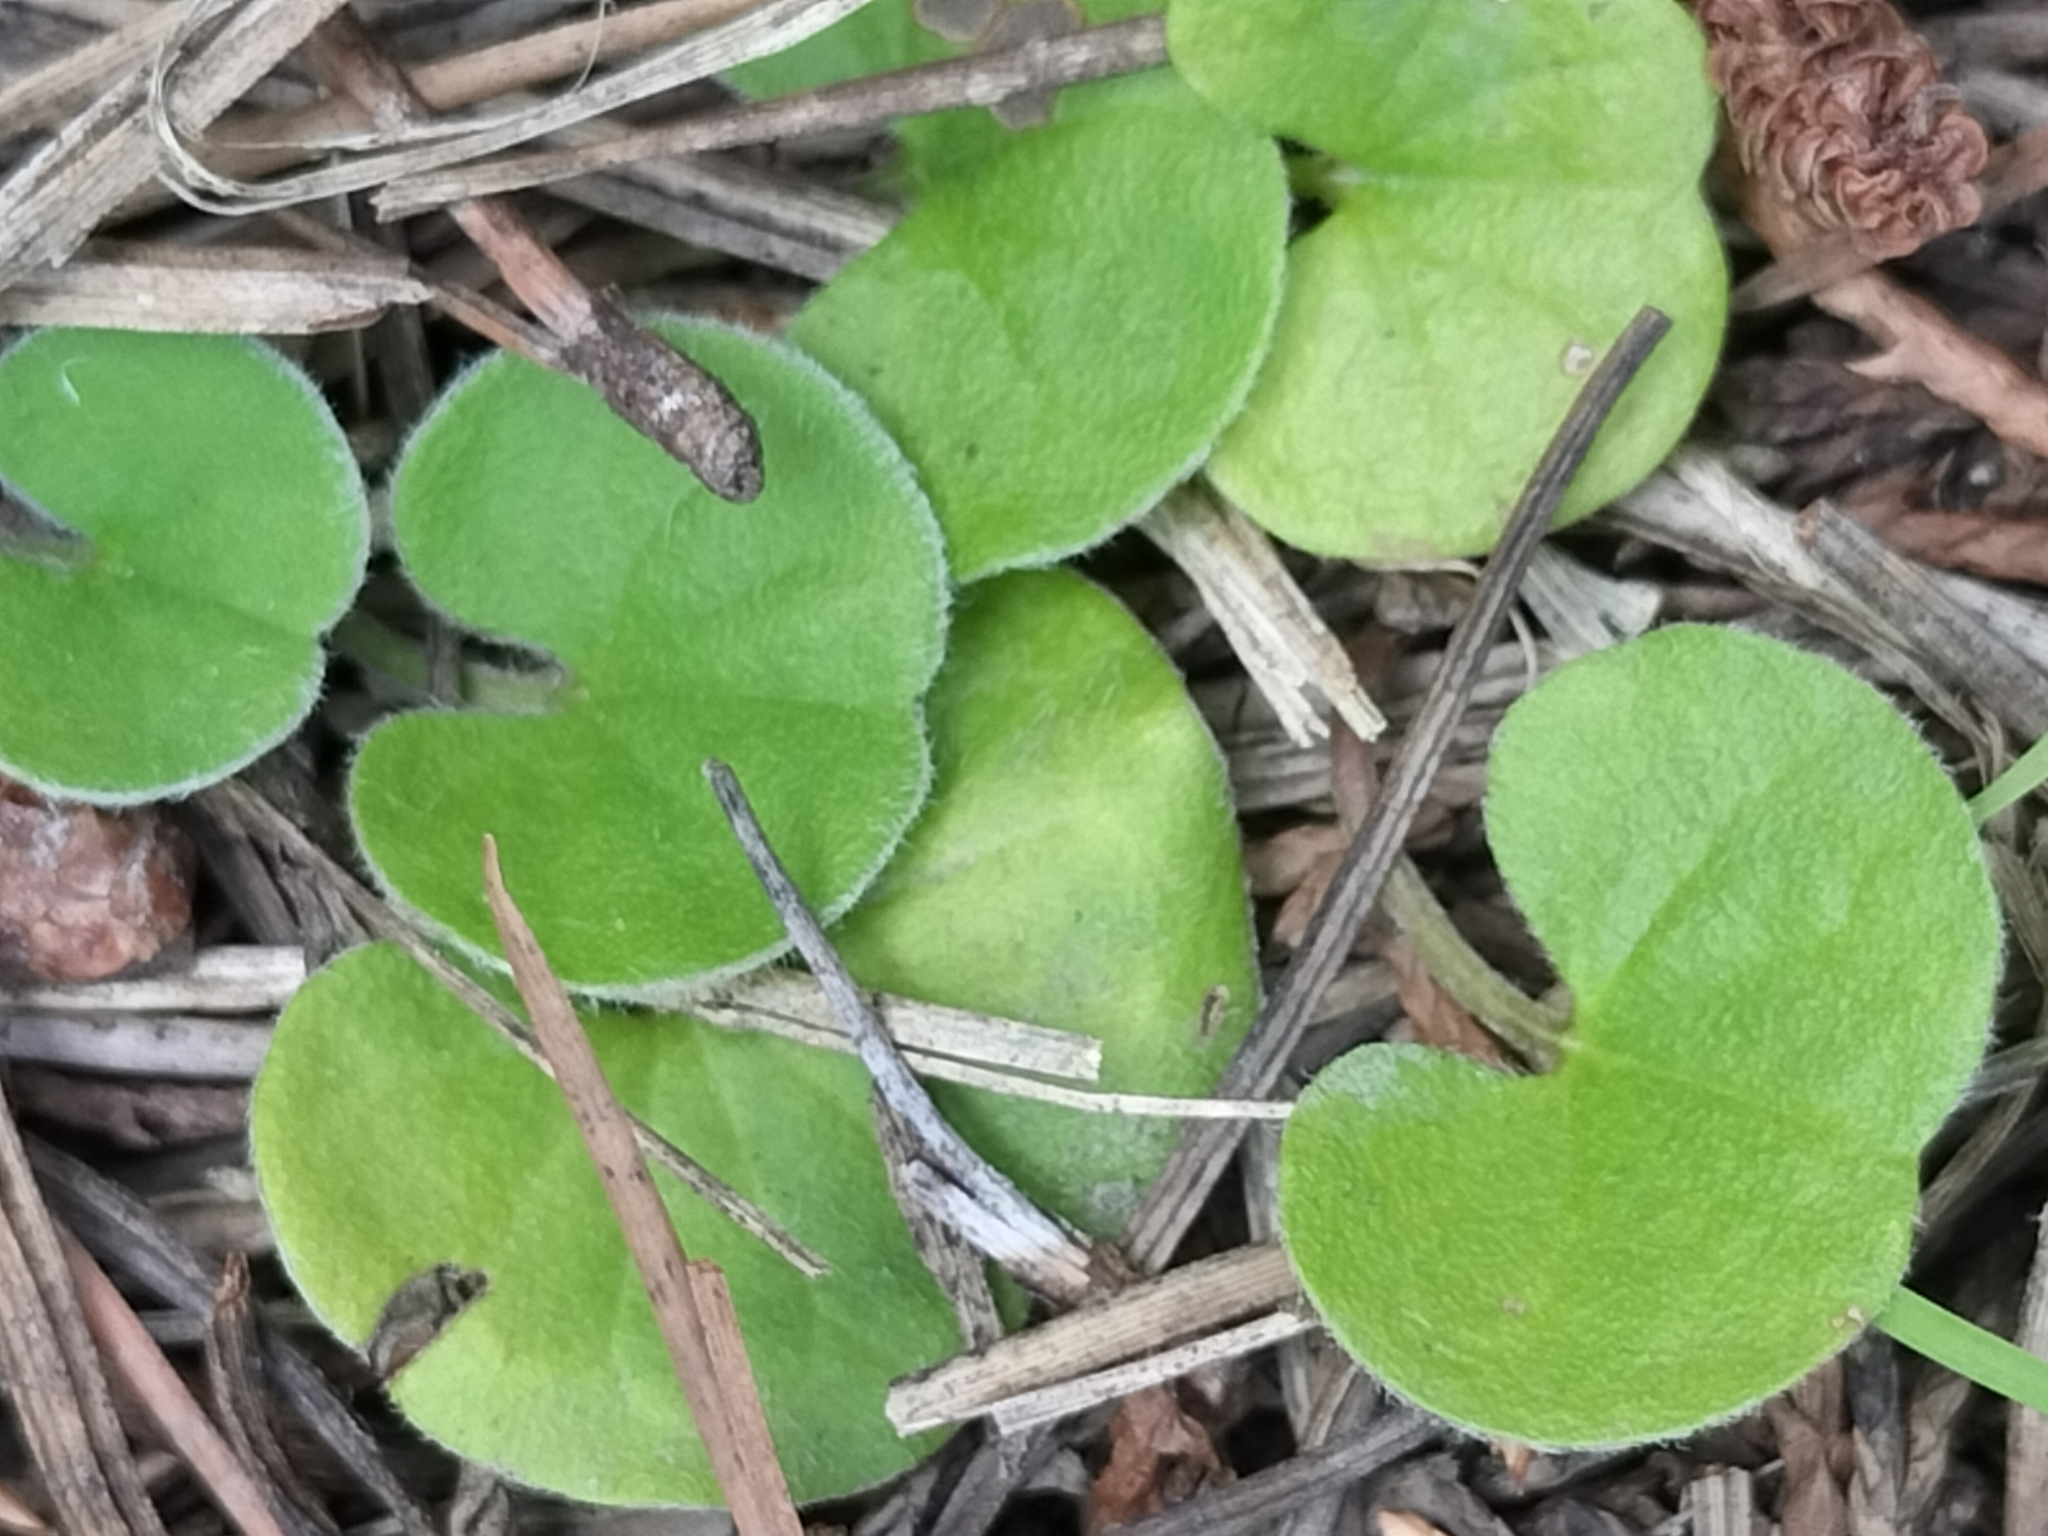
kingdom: Plantae
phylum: Tracheophyta
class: Magnoliopsida
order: Solanales
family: Convolvulaceae
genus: Dichondra
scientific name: Dichondra repens
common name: Kidneyweed
